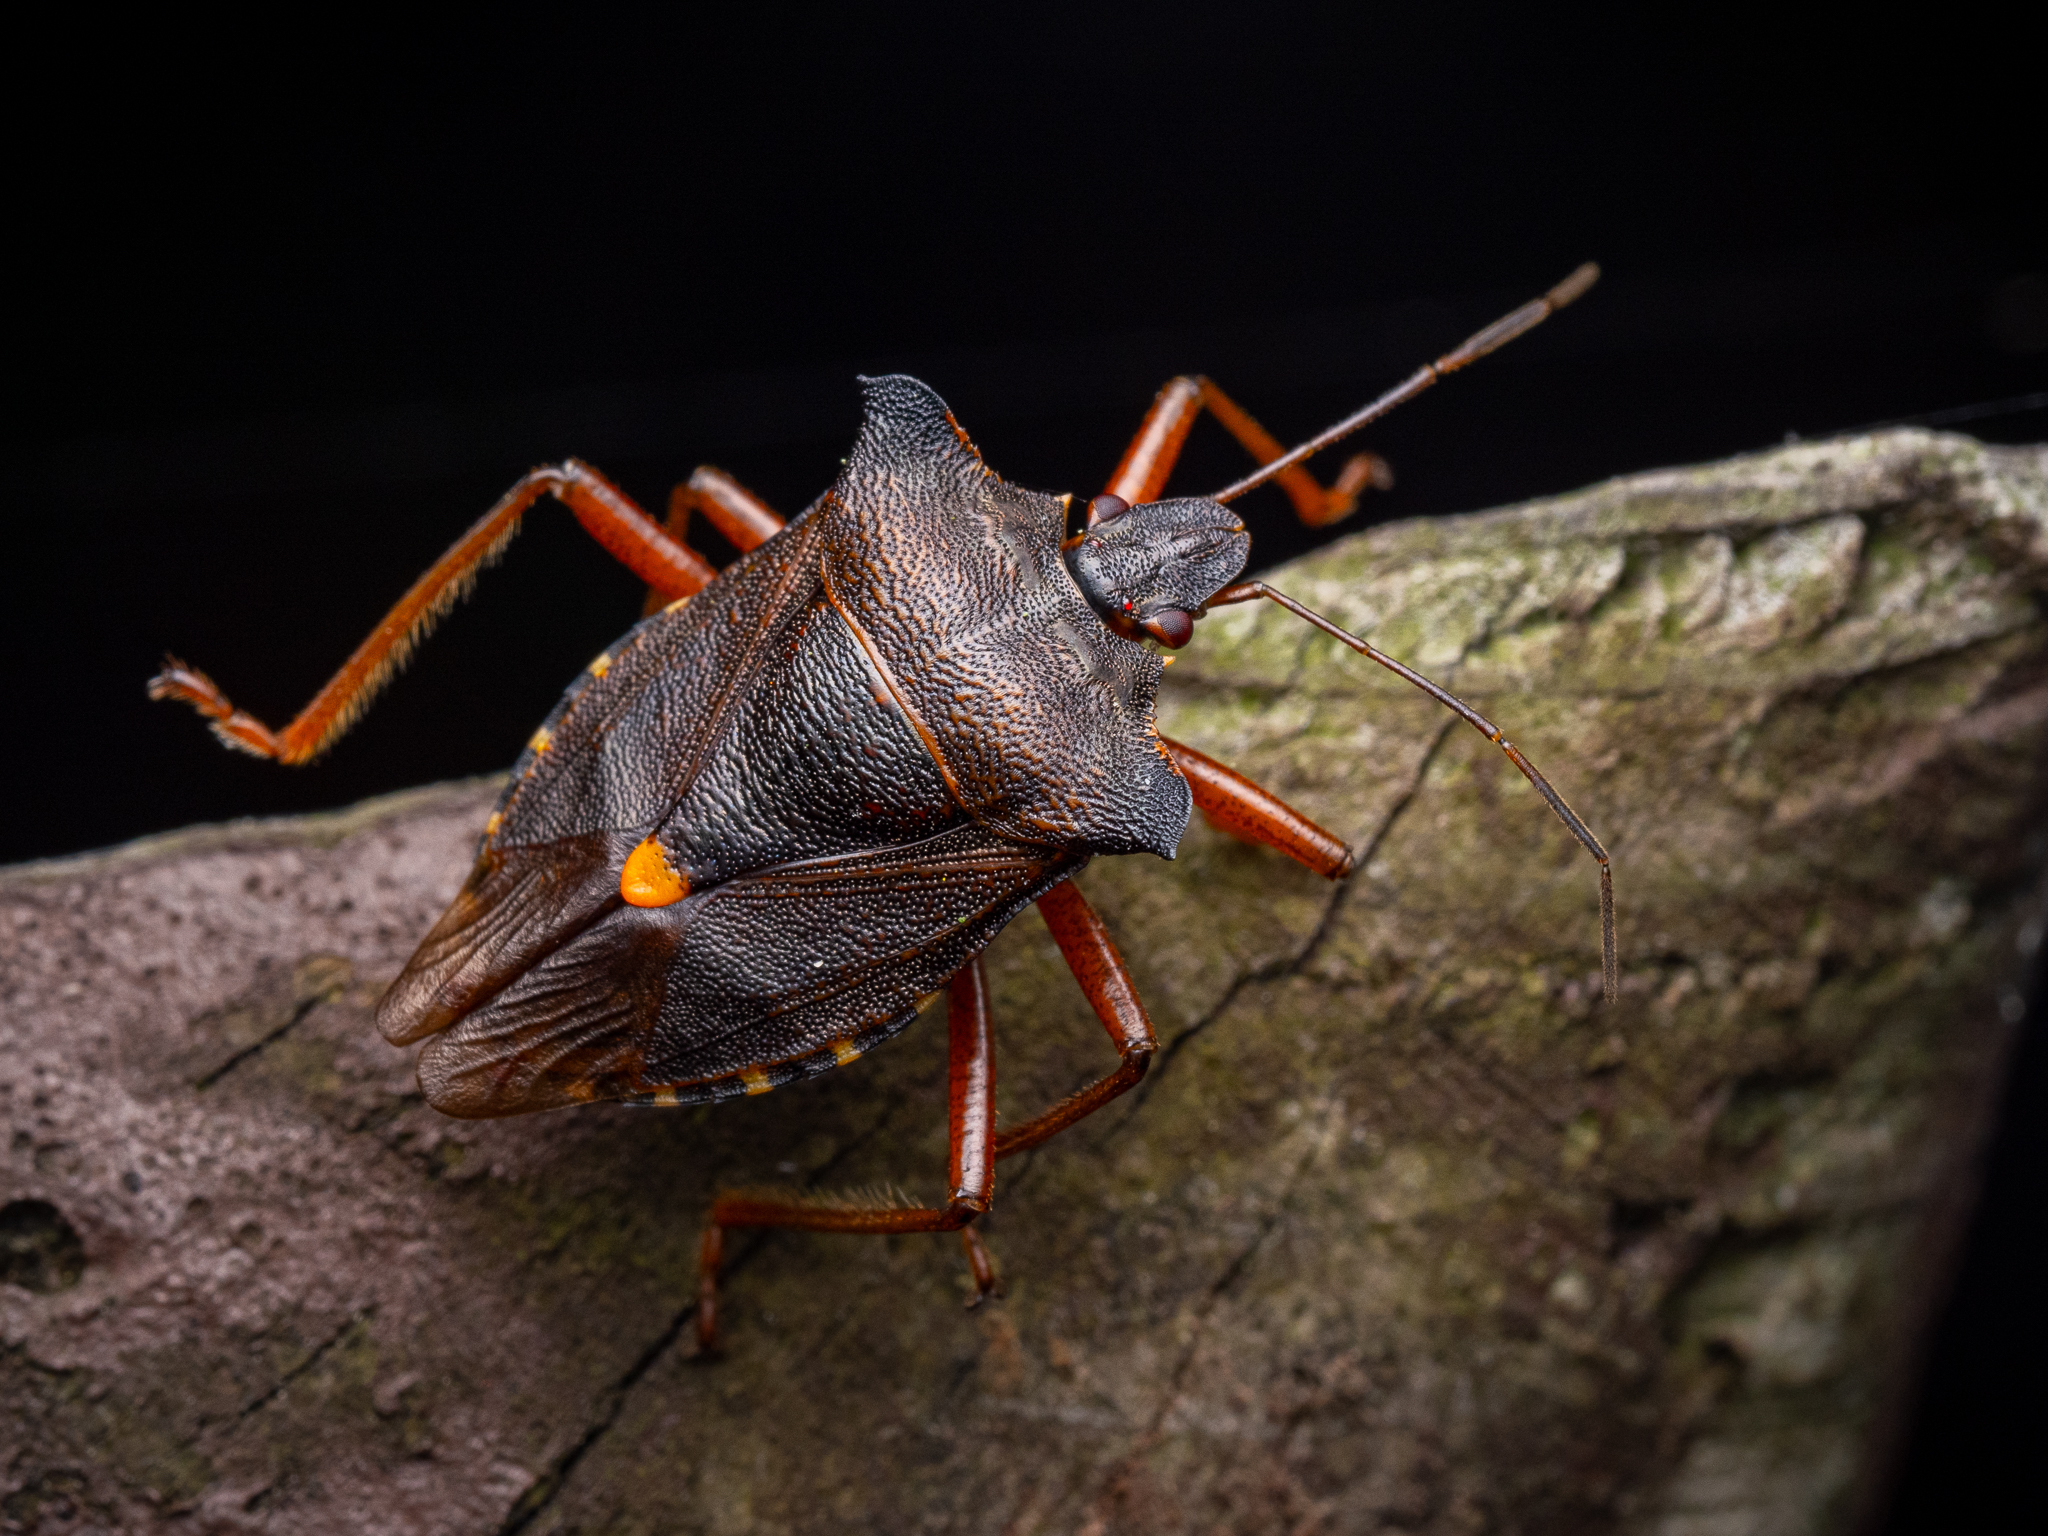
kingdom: Animalia
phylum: Arthropoda
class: Insecta
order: Hemiptera
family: Pentatomidae
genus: Pentatoma
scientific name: Pentatoma rufipes
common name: Forest bug
